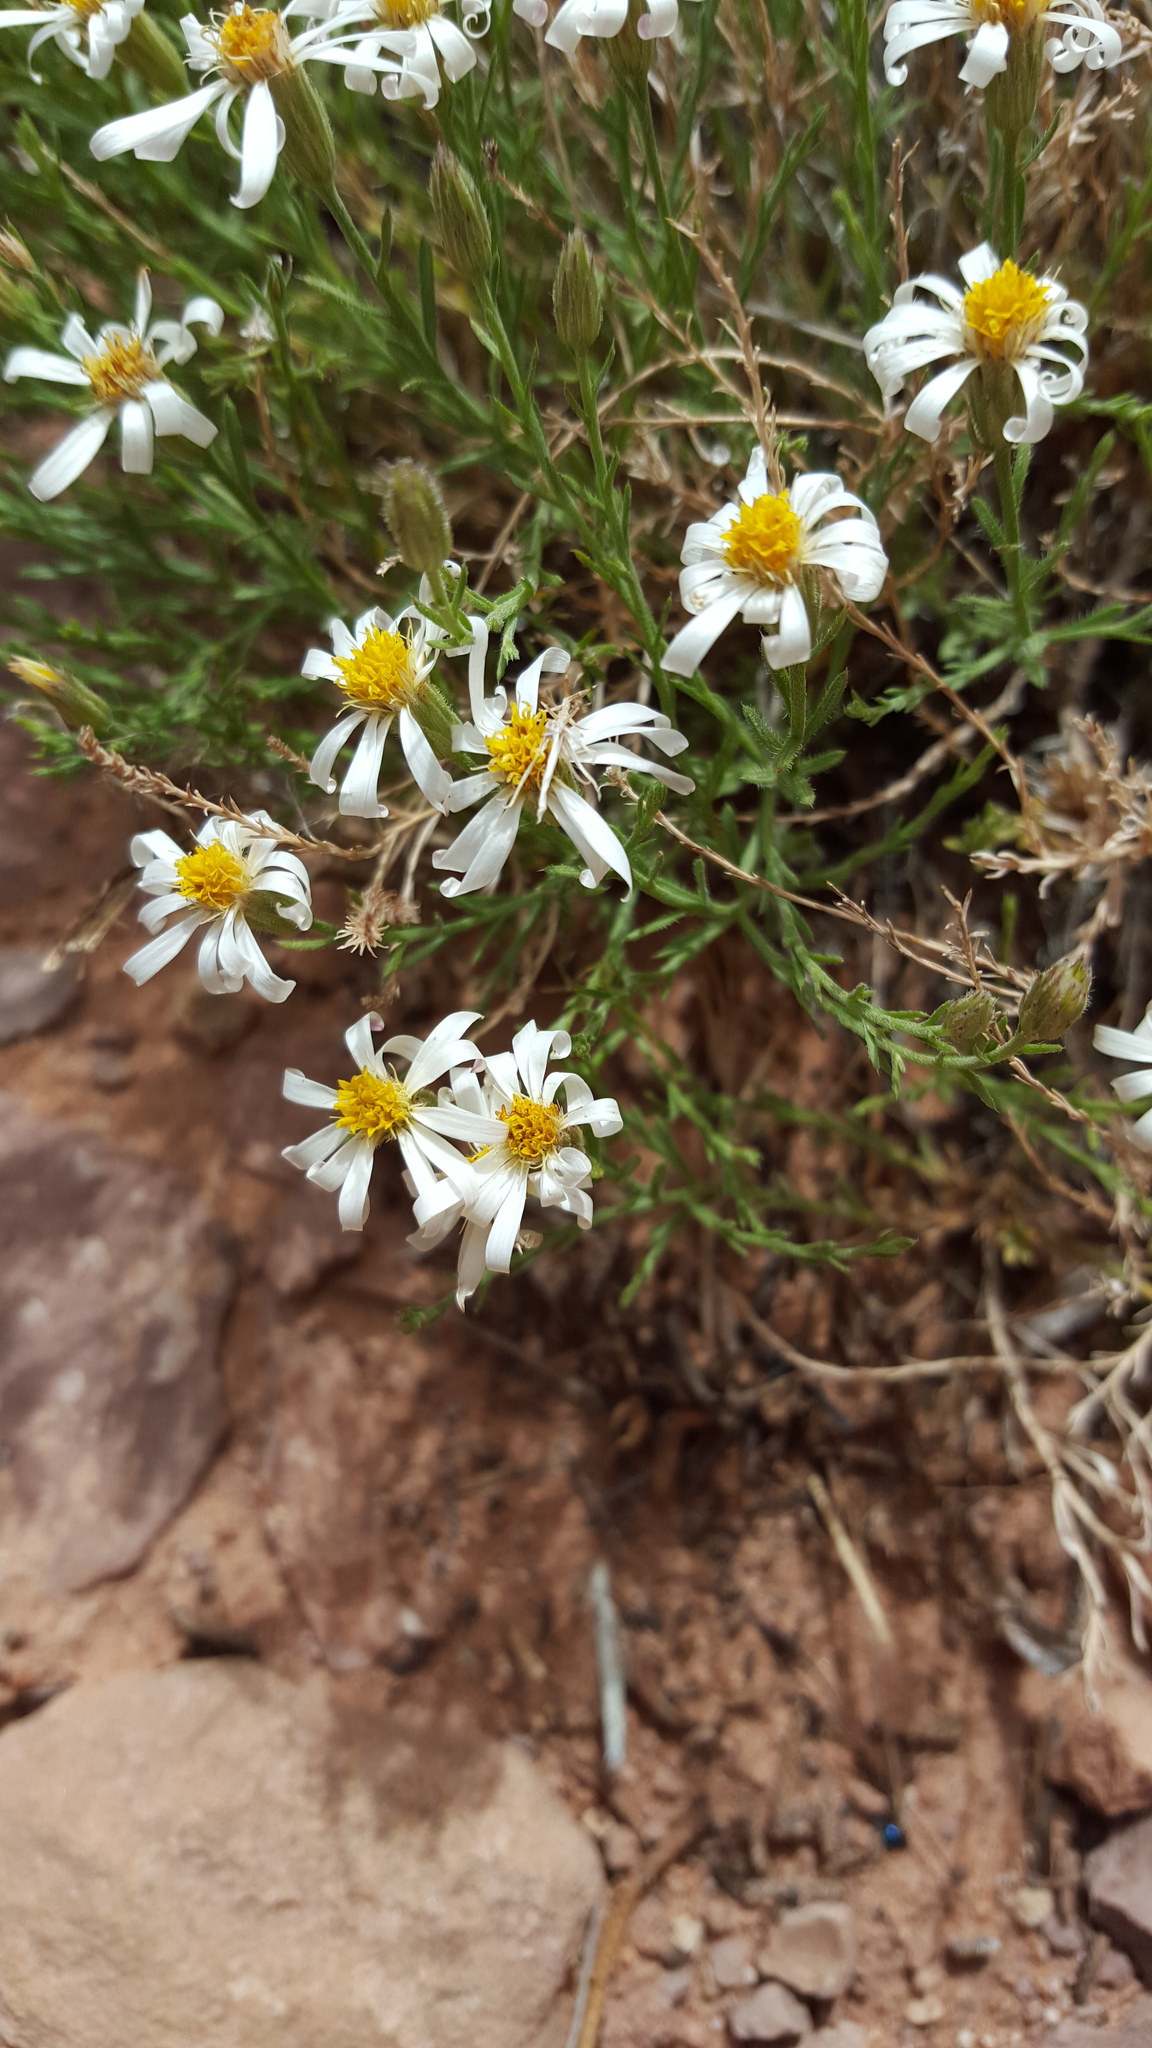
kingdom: Plantae
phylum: Tracheophyta
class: Magnoliopsida
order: Asterales
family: Asteraceae
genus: Chaetopappa
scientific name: Chaetopappa ericoides
